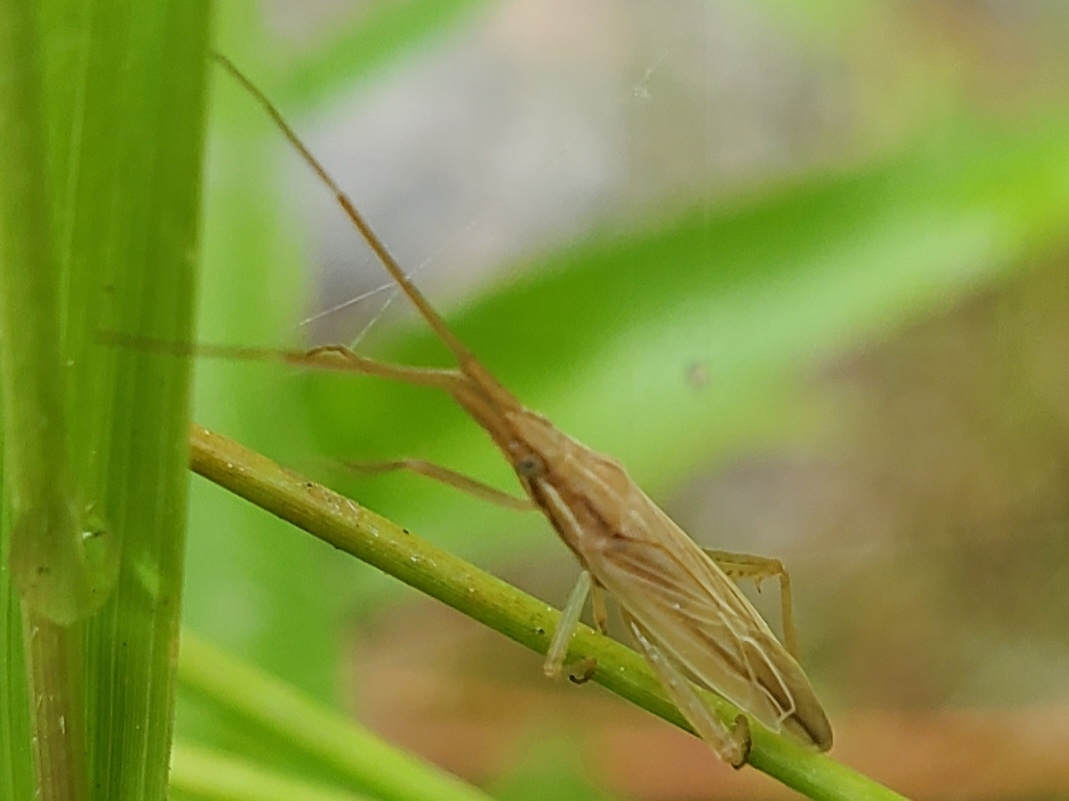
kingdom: Animalia
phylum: Arthropoda
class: Insecta
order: Hemiptera
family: Miridae
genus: Stenodema
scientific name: Stenodema trispinosa
